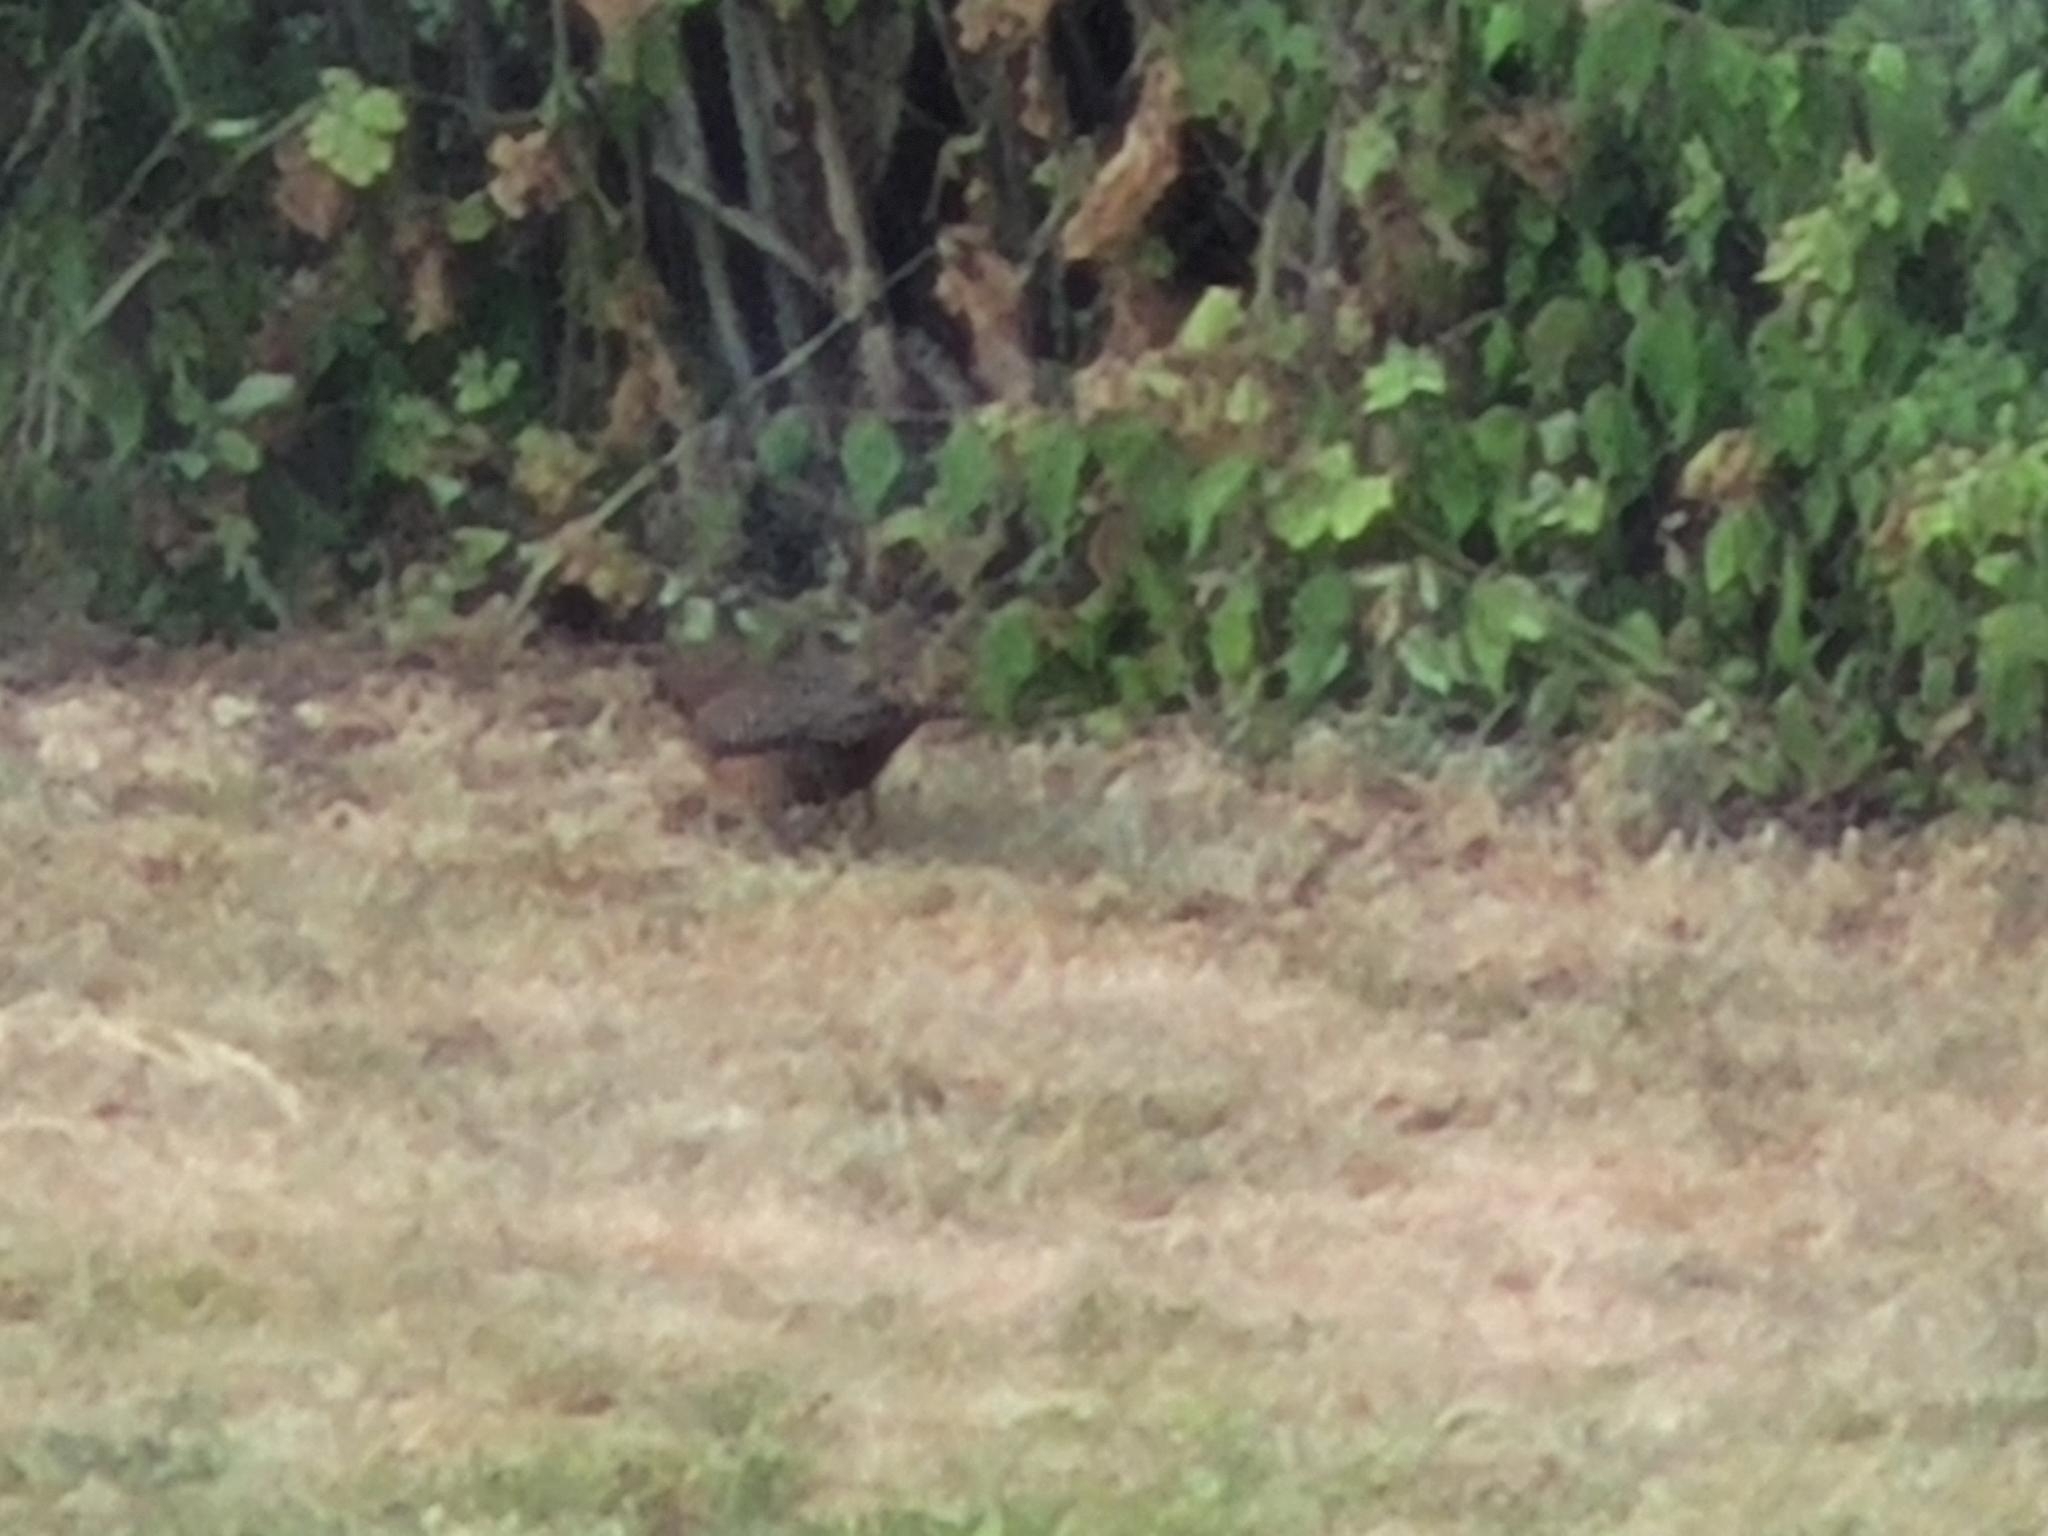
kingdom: Animalia
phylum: Chordata
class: Aves
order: Passeriformes
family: Turdidae
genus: Turdus
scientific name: Turdus merula
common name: Common blackbird
